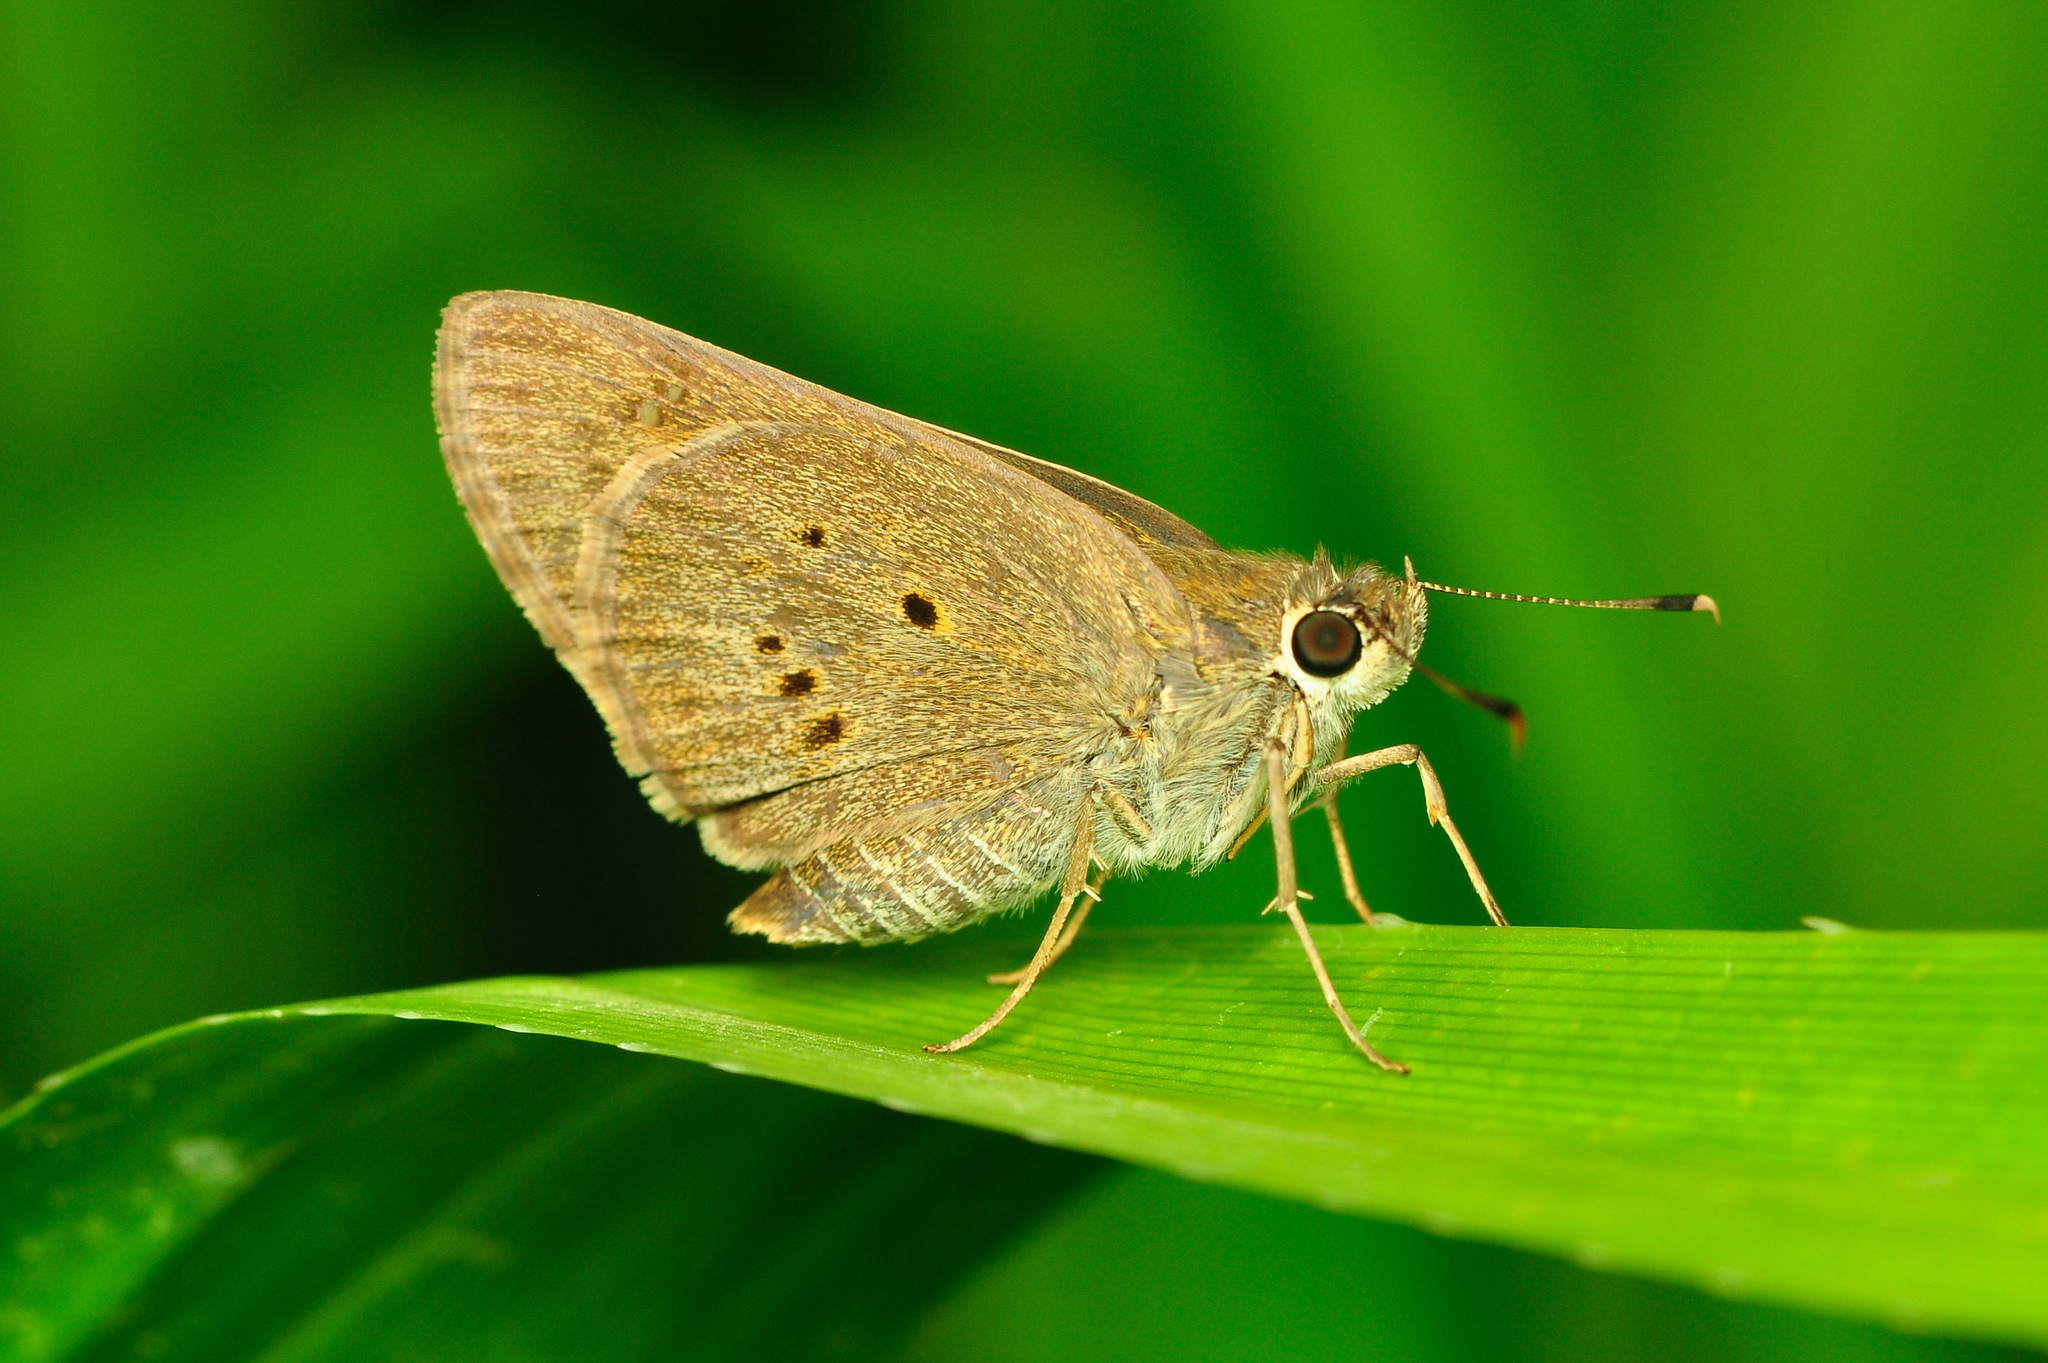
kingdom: Animalia
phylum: Arthropoda
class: Insecta
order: Lepidoptera
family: Hesperiidae
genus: Suastus
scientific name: Suastus gremius
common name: Indian palm bob
